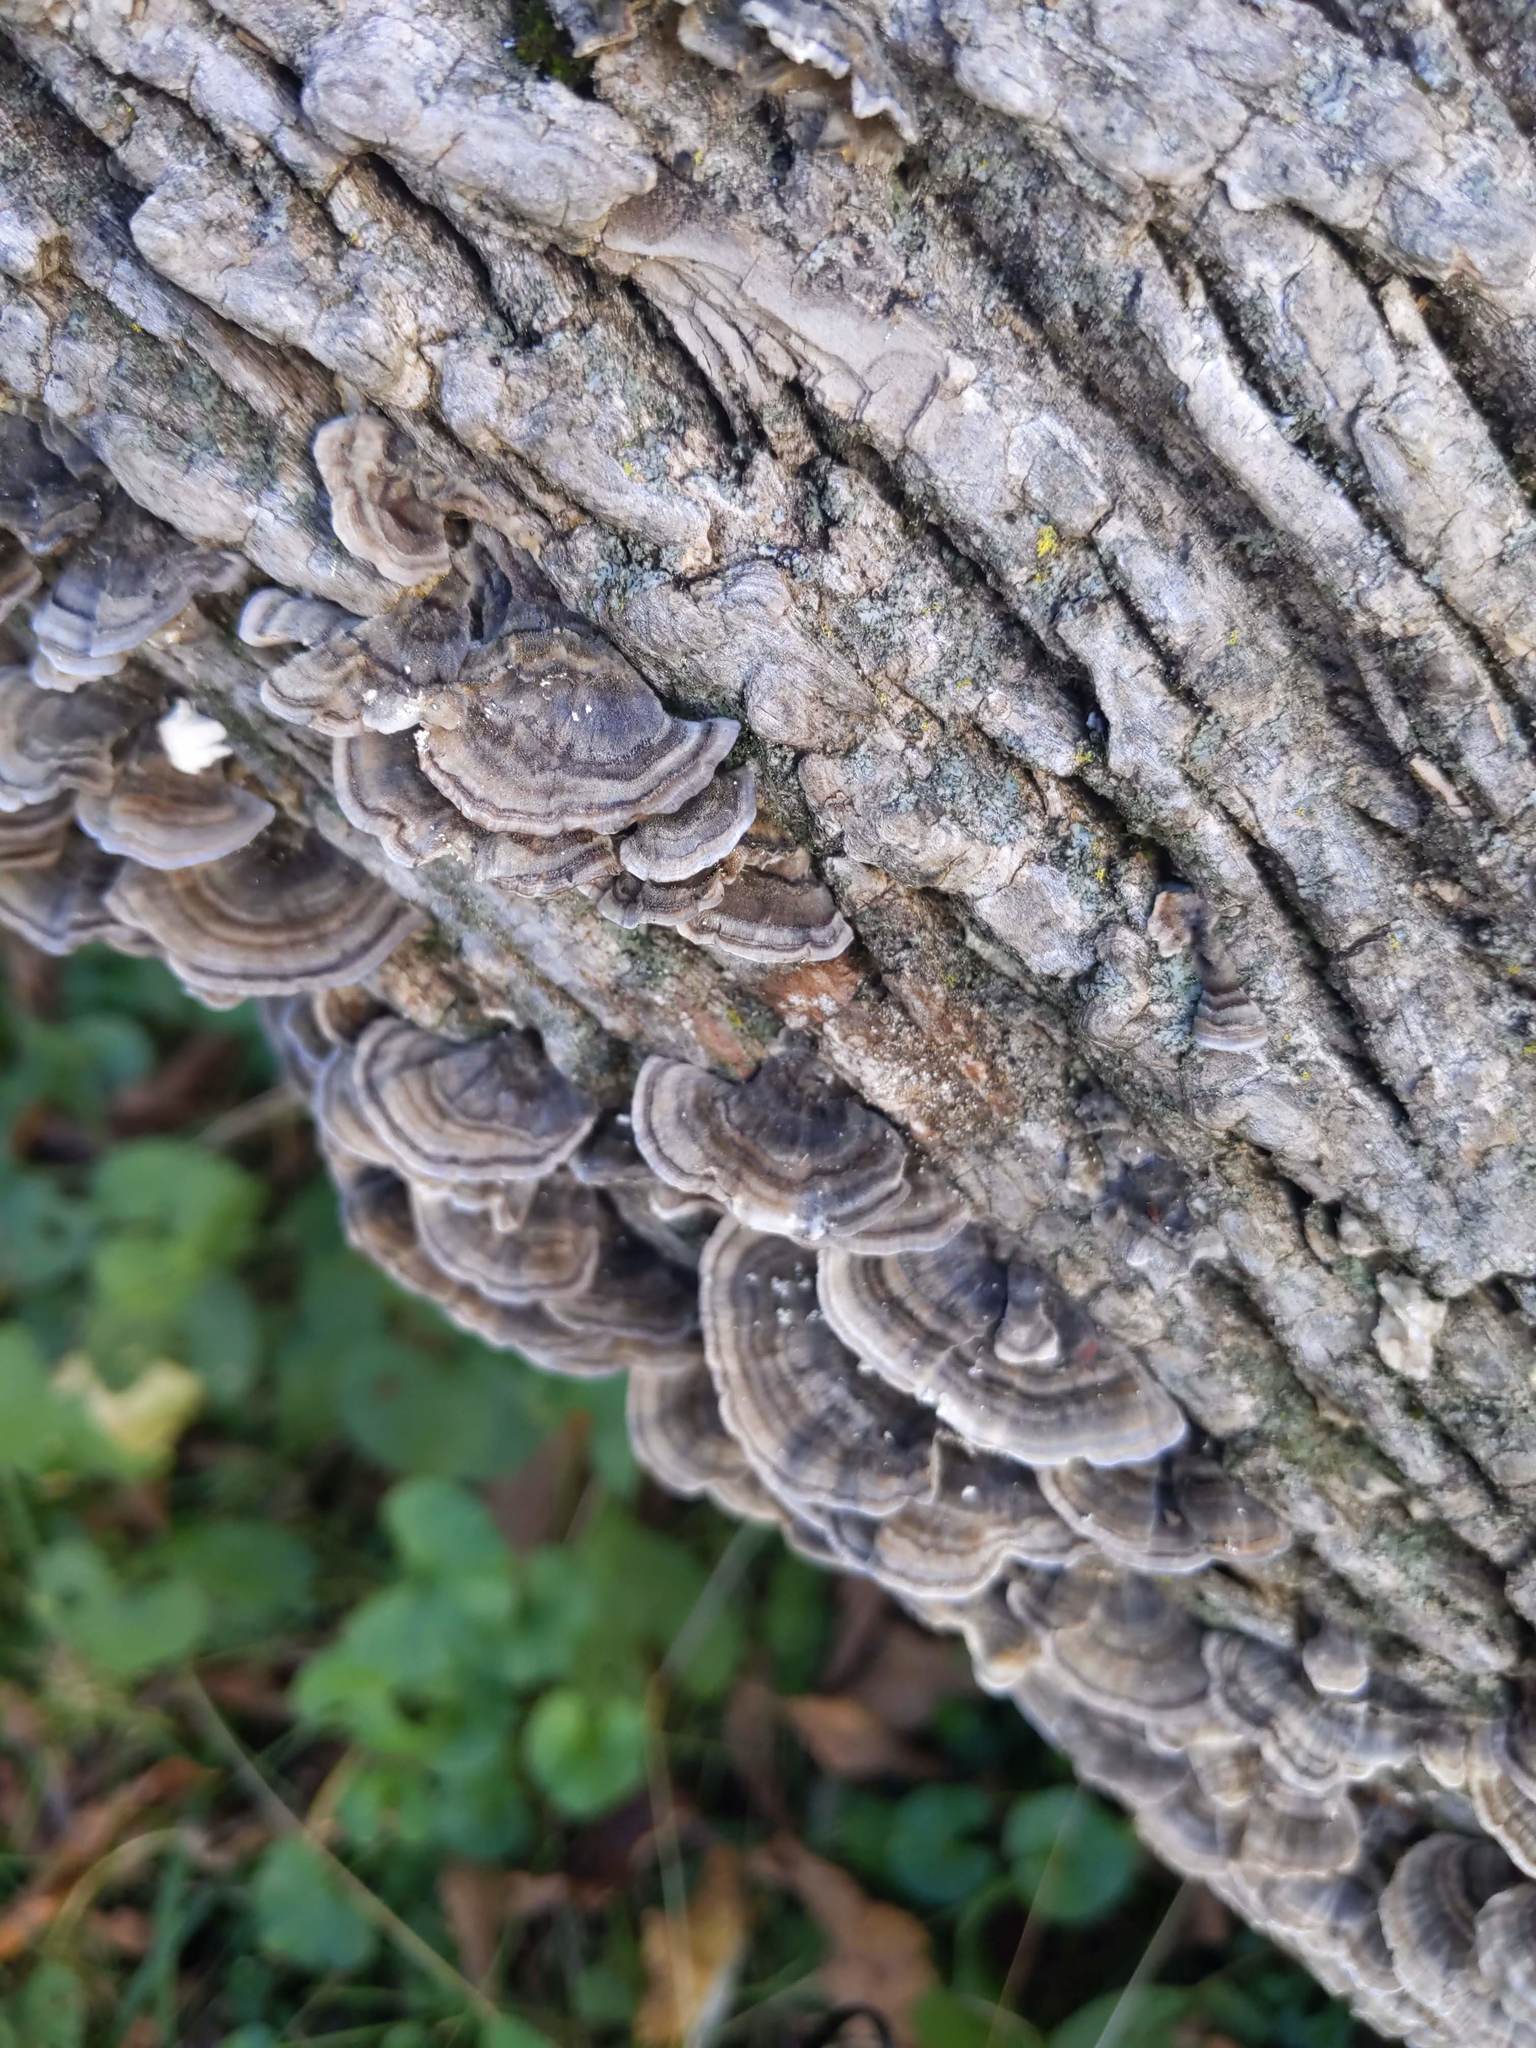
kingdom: Fungi
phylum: Basidiomycota
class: Agaricomycetes
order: Polyporales
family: Polyporaceae
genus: Trametes
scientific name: Trametes versicolor
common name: Turkeytail
